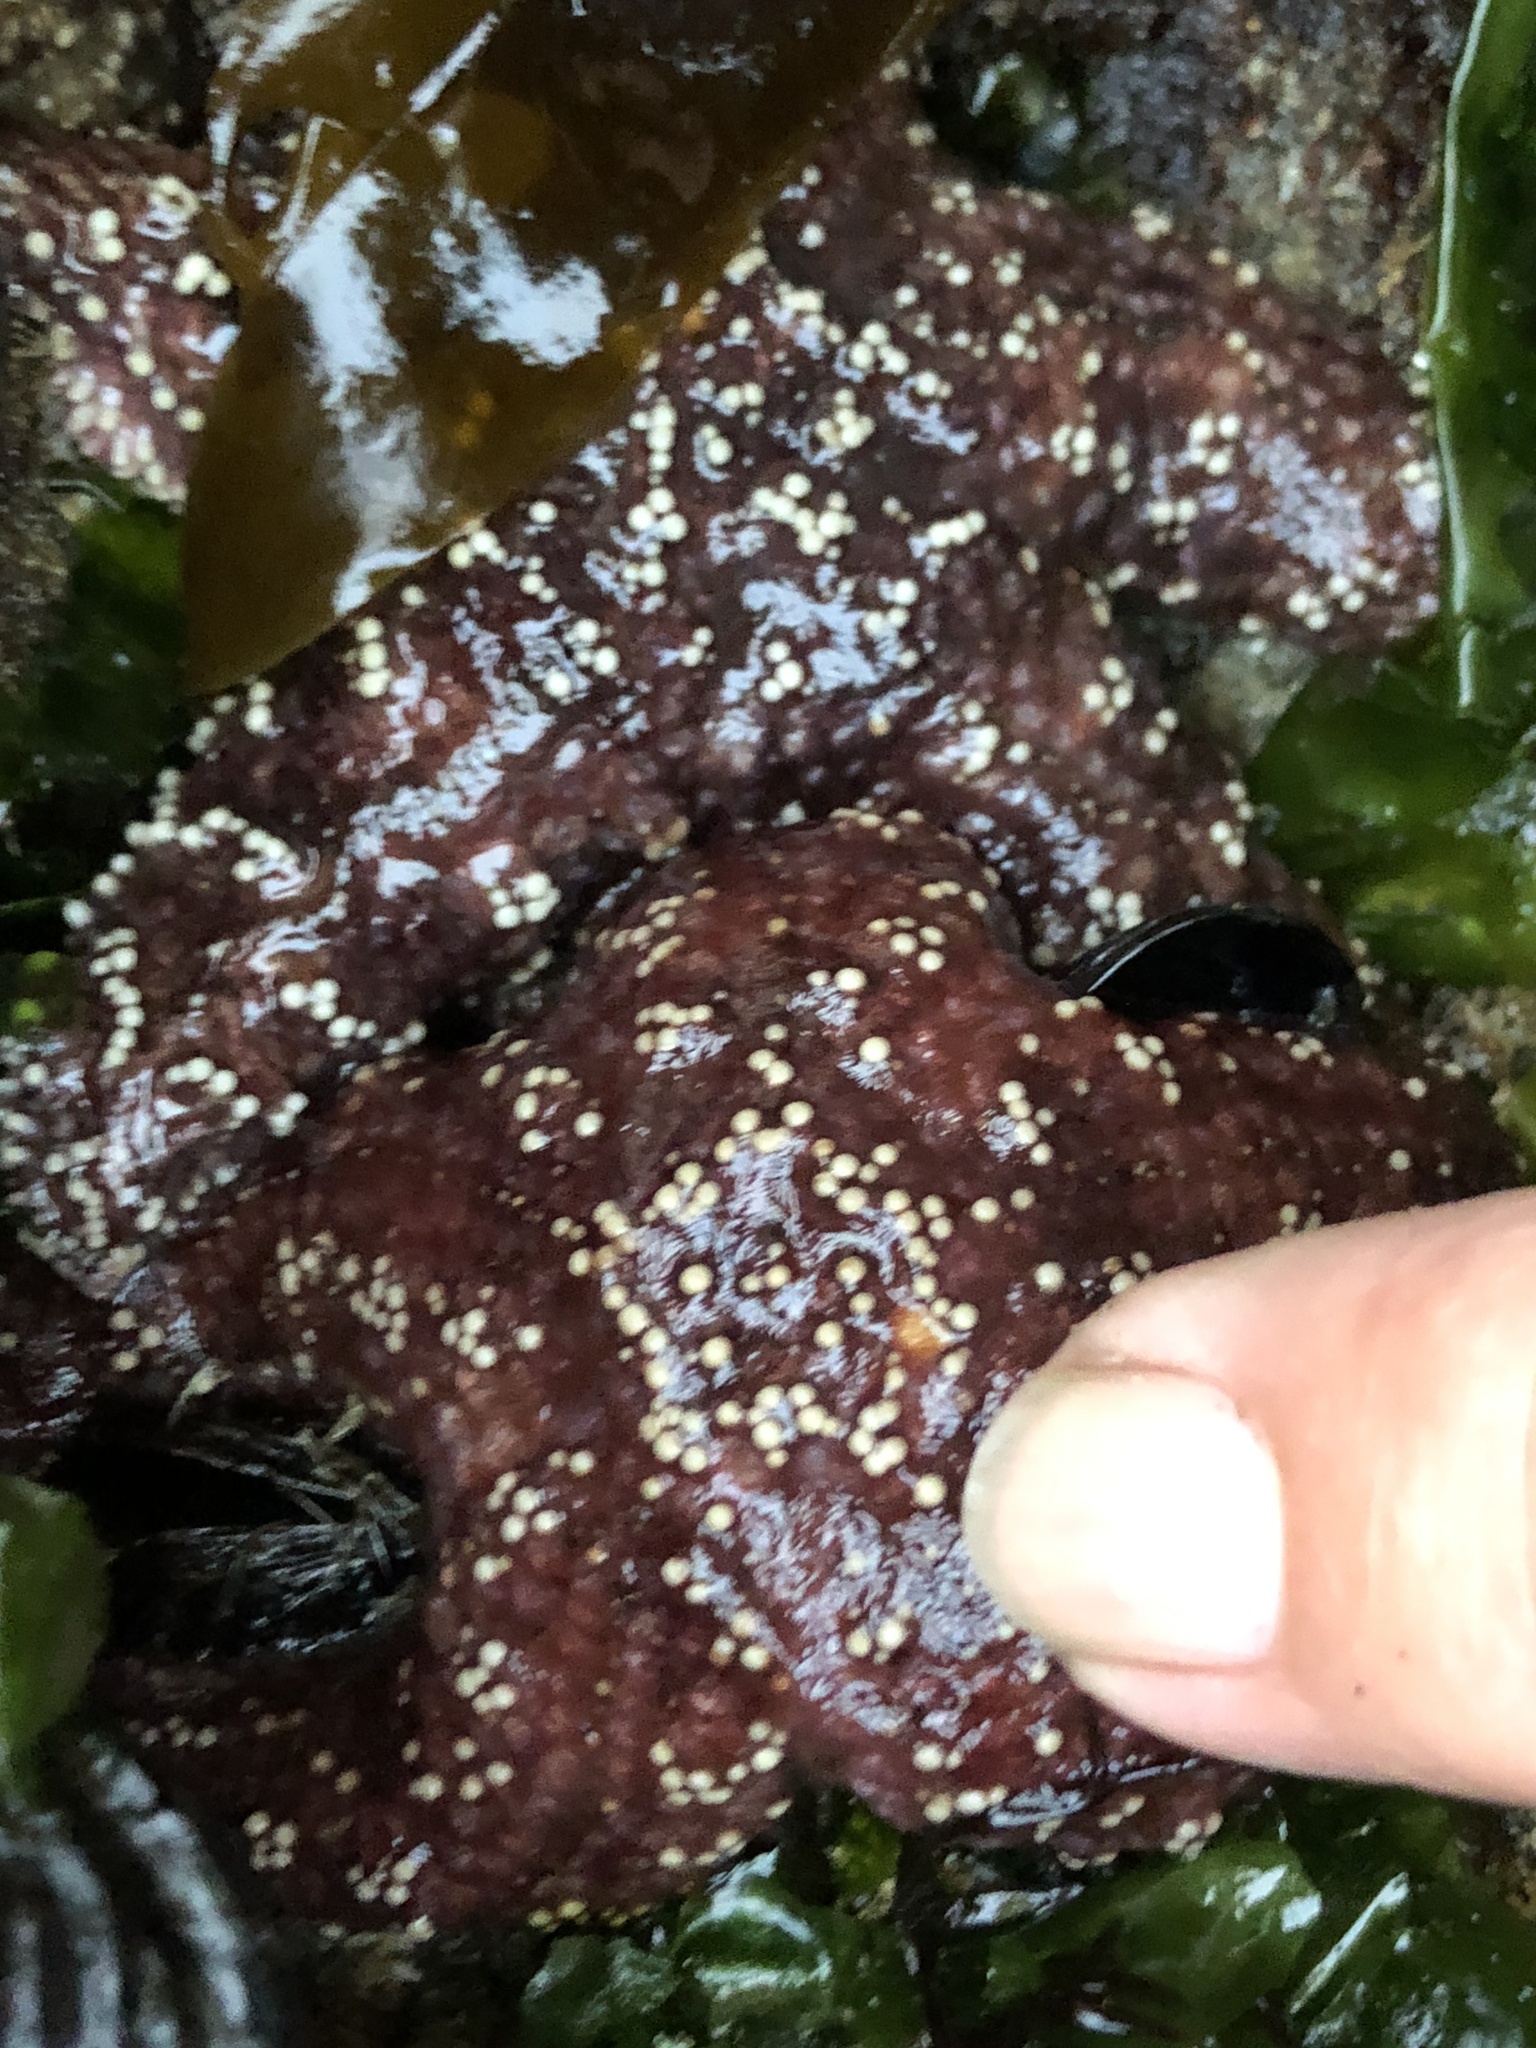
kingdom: Animalia
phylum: Echinodermata
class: Asteroidea
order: Forcipulatida
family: Asteriidae
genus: Pisaster
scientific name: Pisaster ochraceus
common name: Ochre stars
